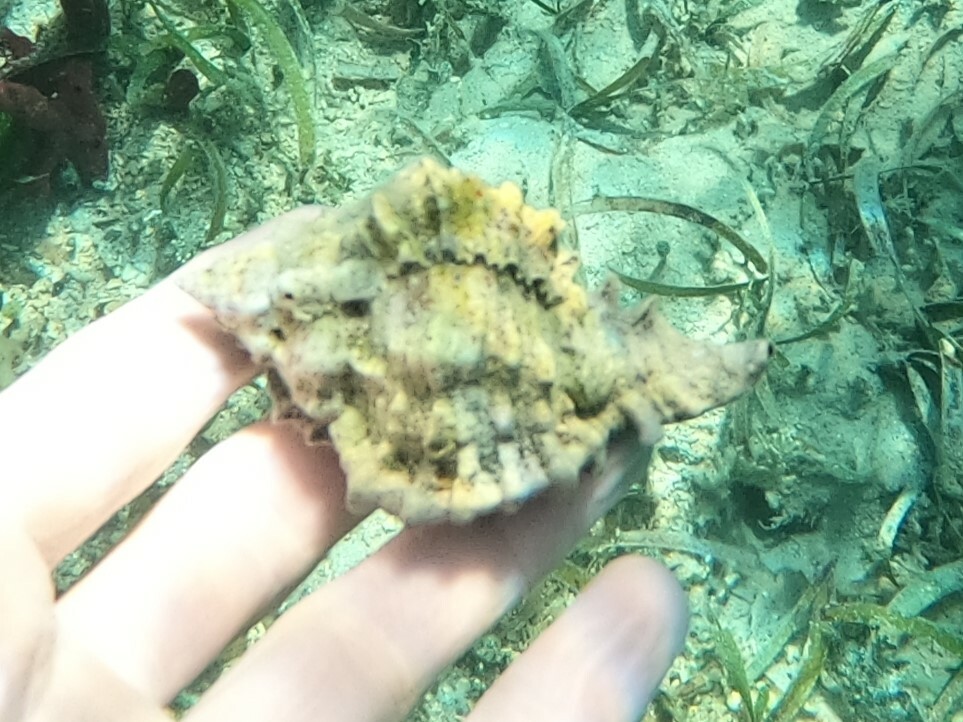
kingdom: Animalia
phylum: Mollusca
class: Gastropoda
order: Neogastropoda
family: Muricidae
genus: Phyllonotus
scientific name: Phyllonotus pomum
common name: Apple murex
